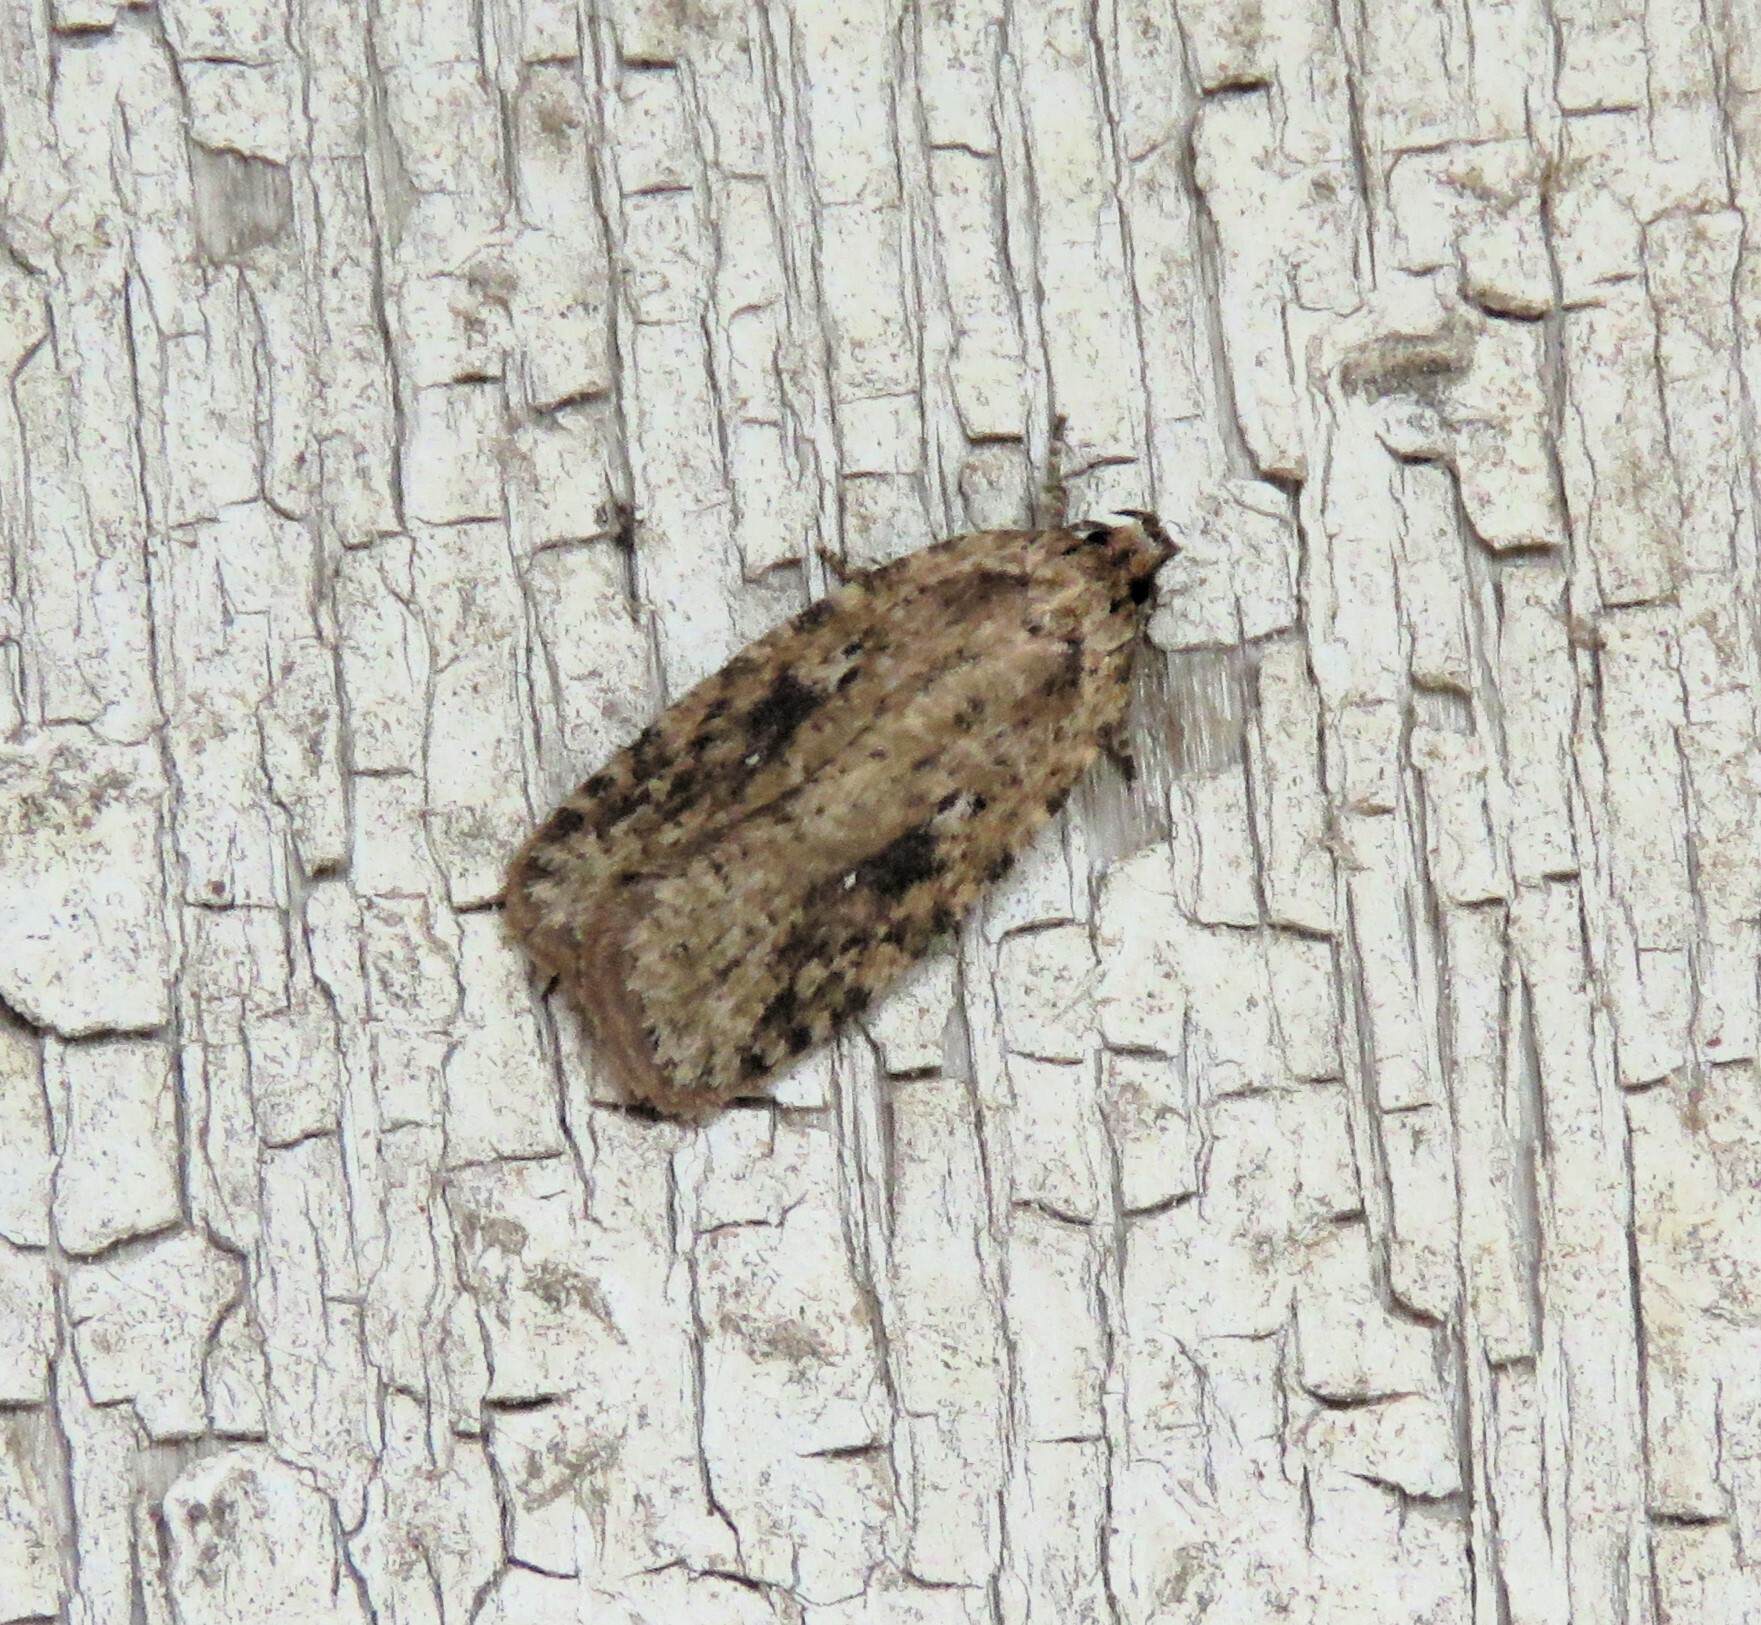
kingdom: Animalia
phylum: Arthropoda
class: Insecta
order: Lepidoptera
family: Depressariidae
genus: Agonopterix
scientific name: Agonopterix pulvipennella
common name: Goldenrod leafffolder
